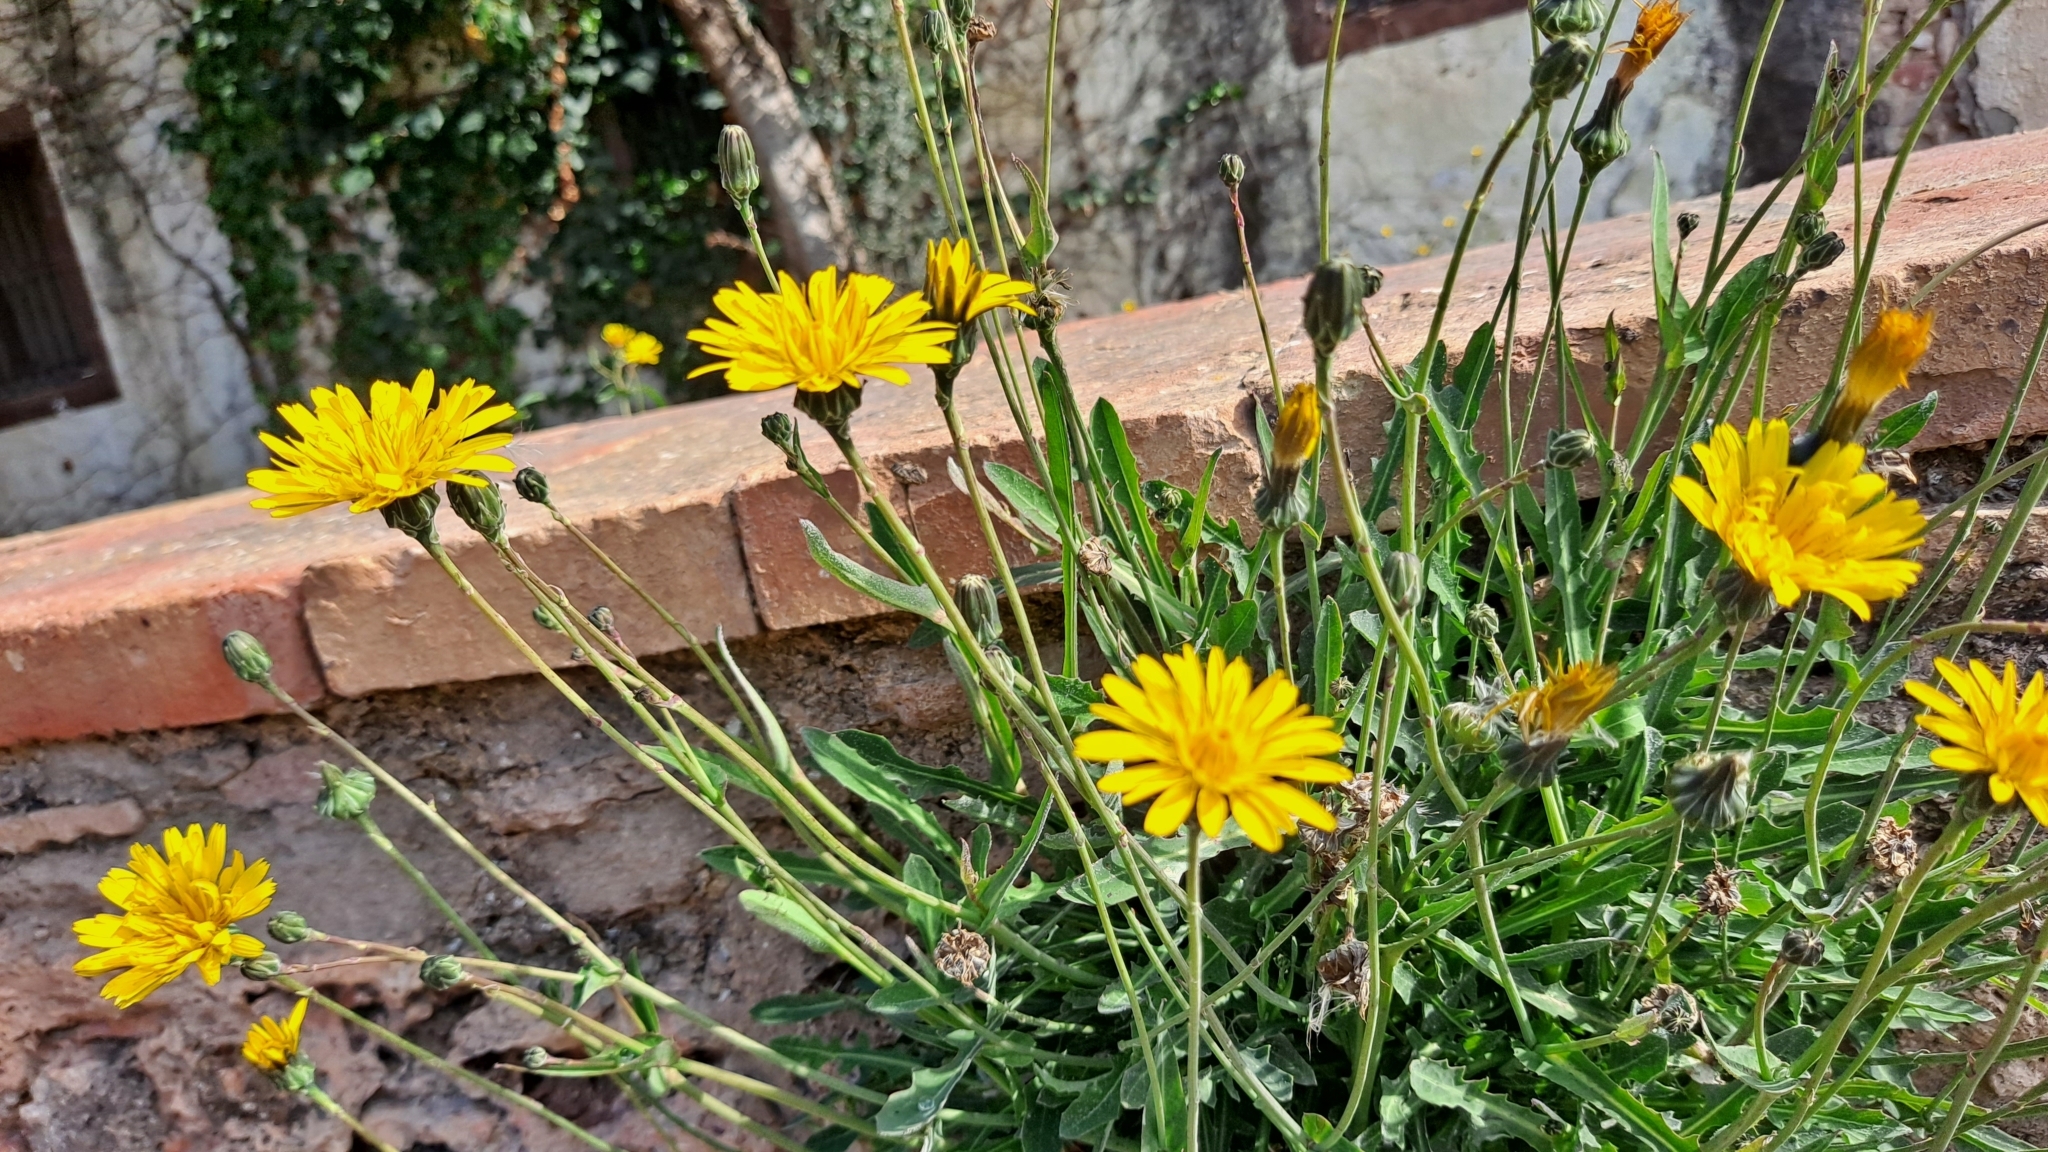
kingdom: Plantae
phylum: Tracheophyta
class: Magnoliopsida
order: Asterales
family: Asteraceae
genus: Reichardia
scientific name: Reichardia picroides
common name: Common brighteyes
